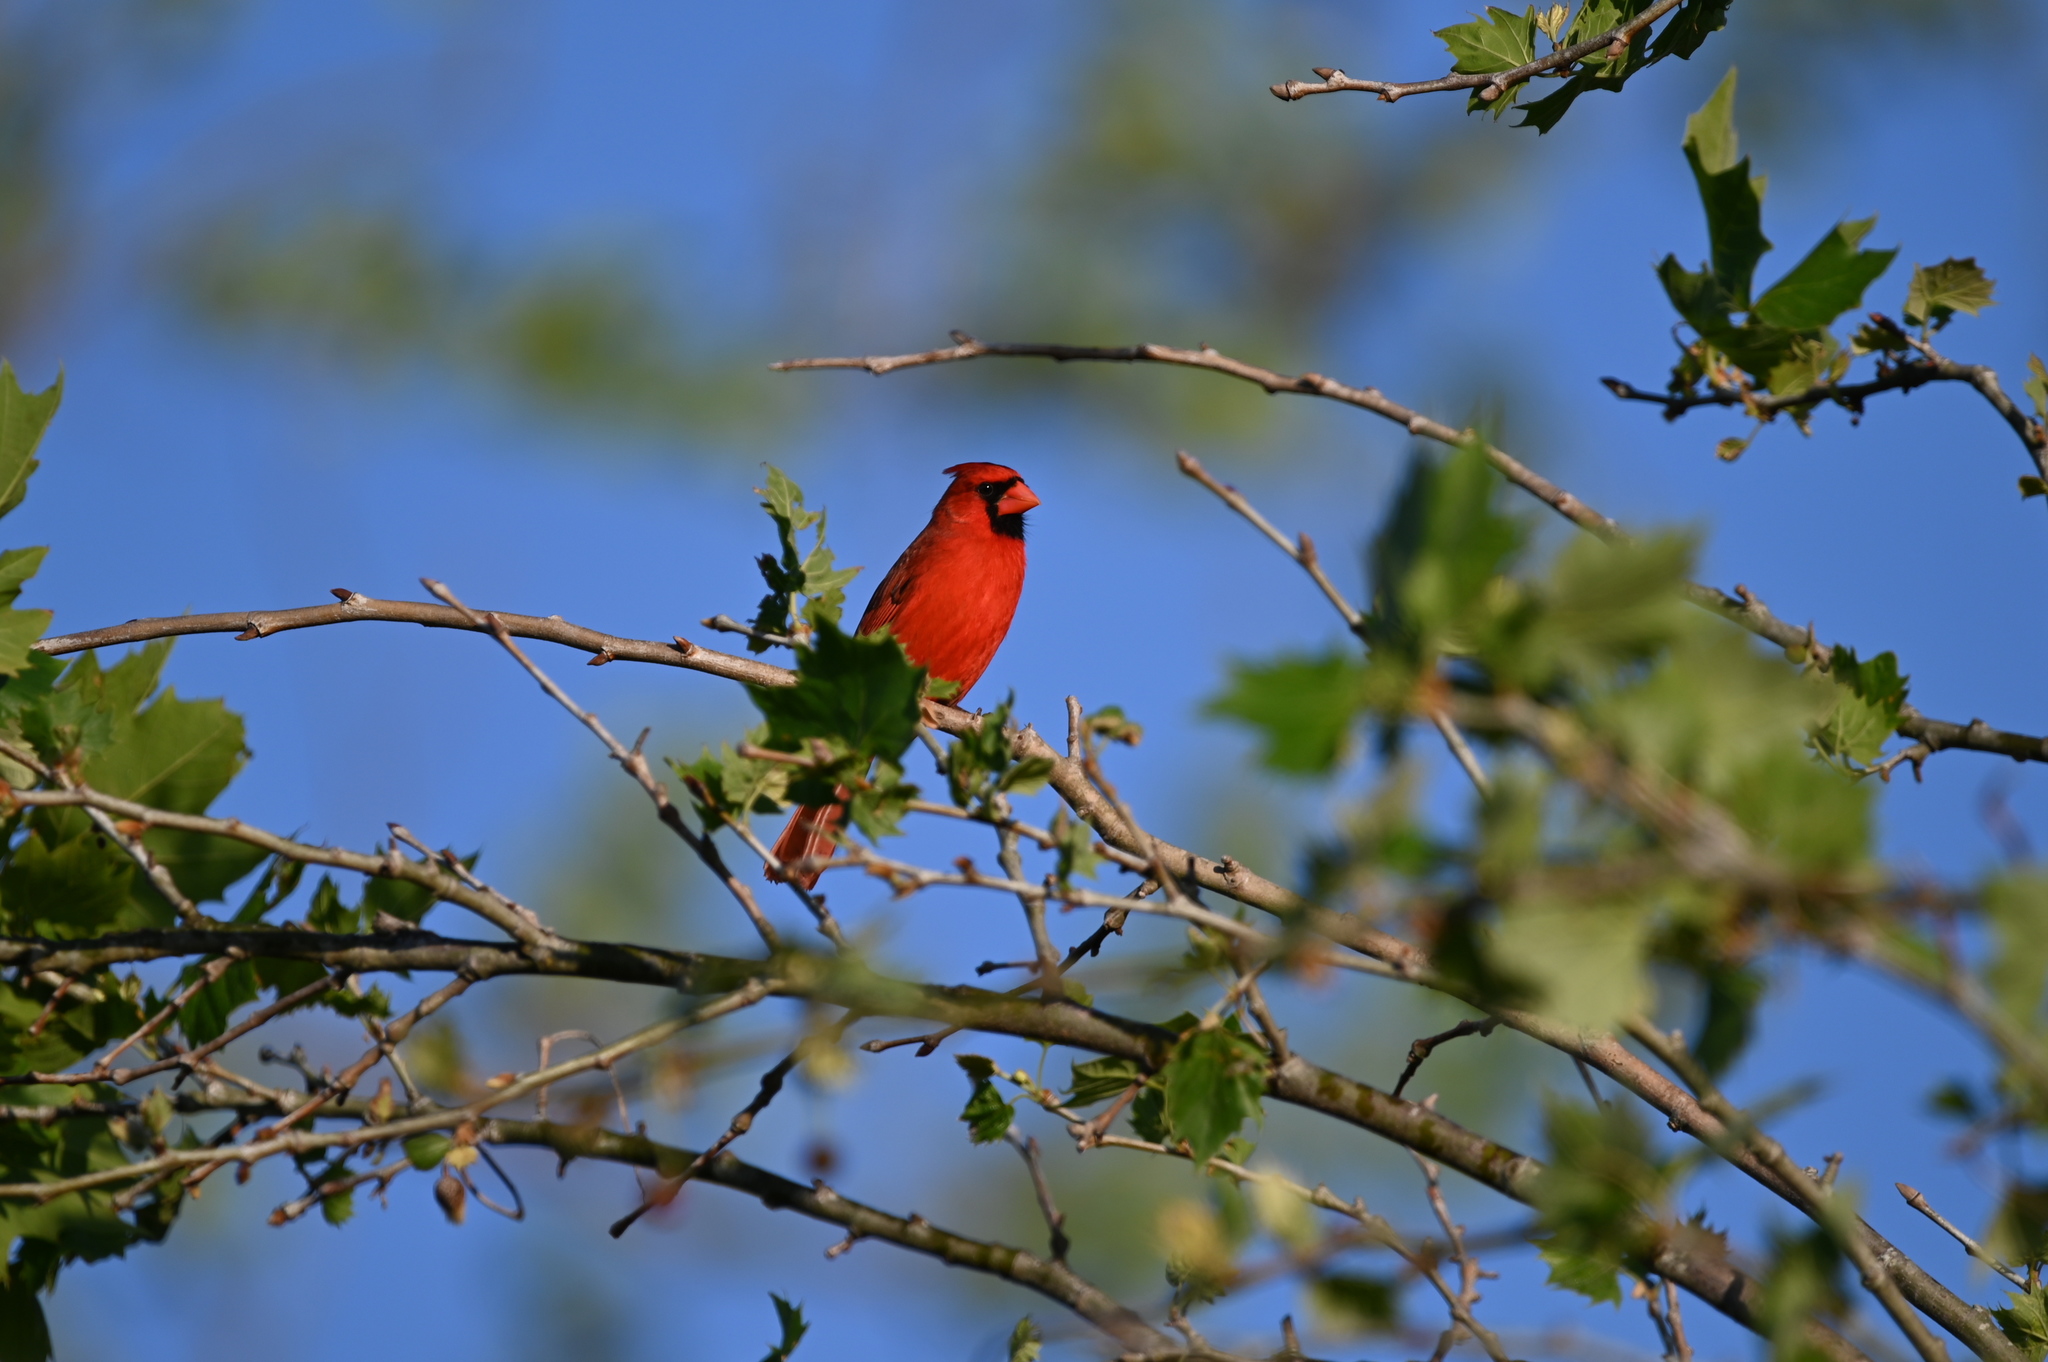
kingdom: Animalia
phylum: Chordata
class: Aves
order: Passeriformes
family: Cardinalidae
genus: Cardinalis
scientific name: Cardinalis cardinalis
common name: Northern cardinal
